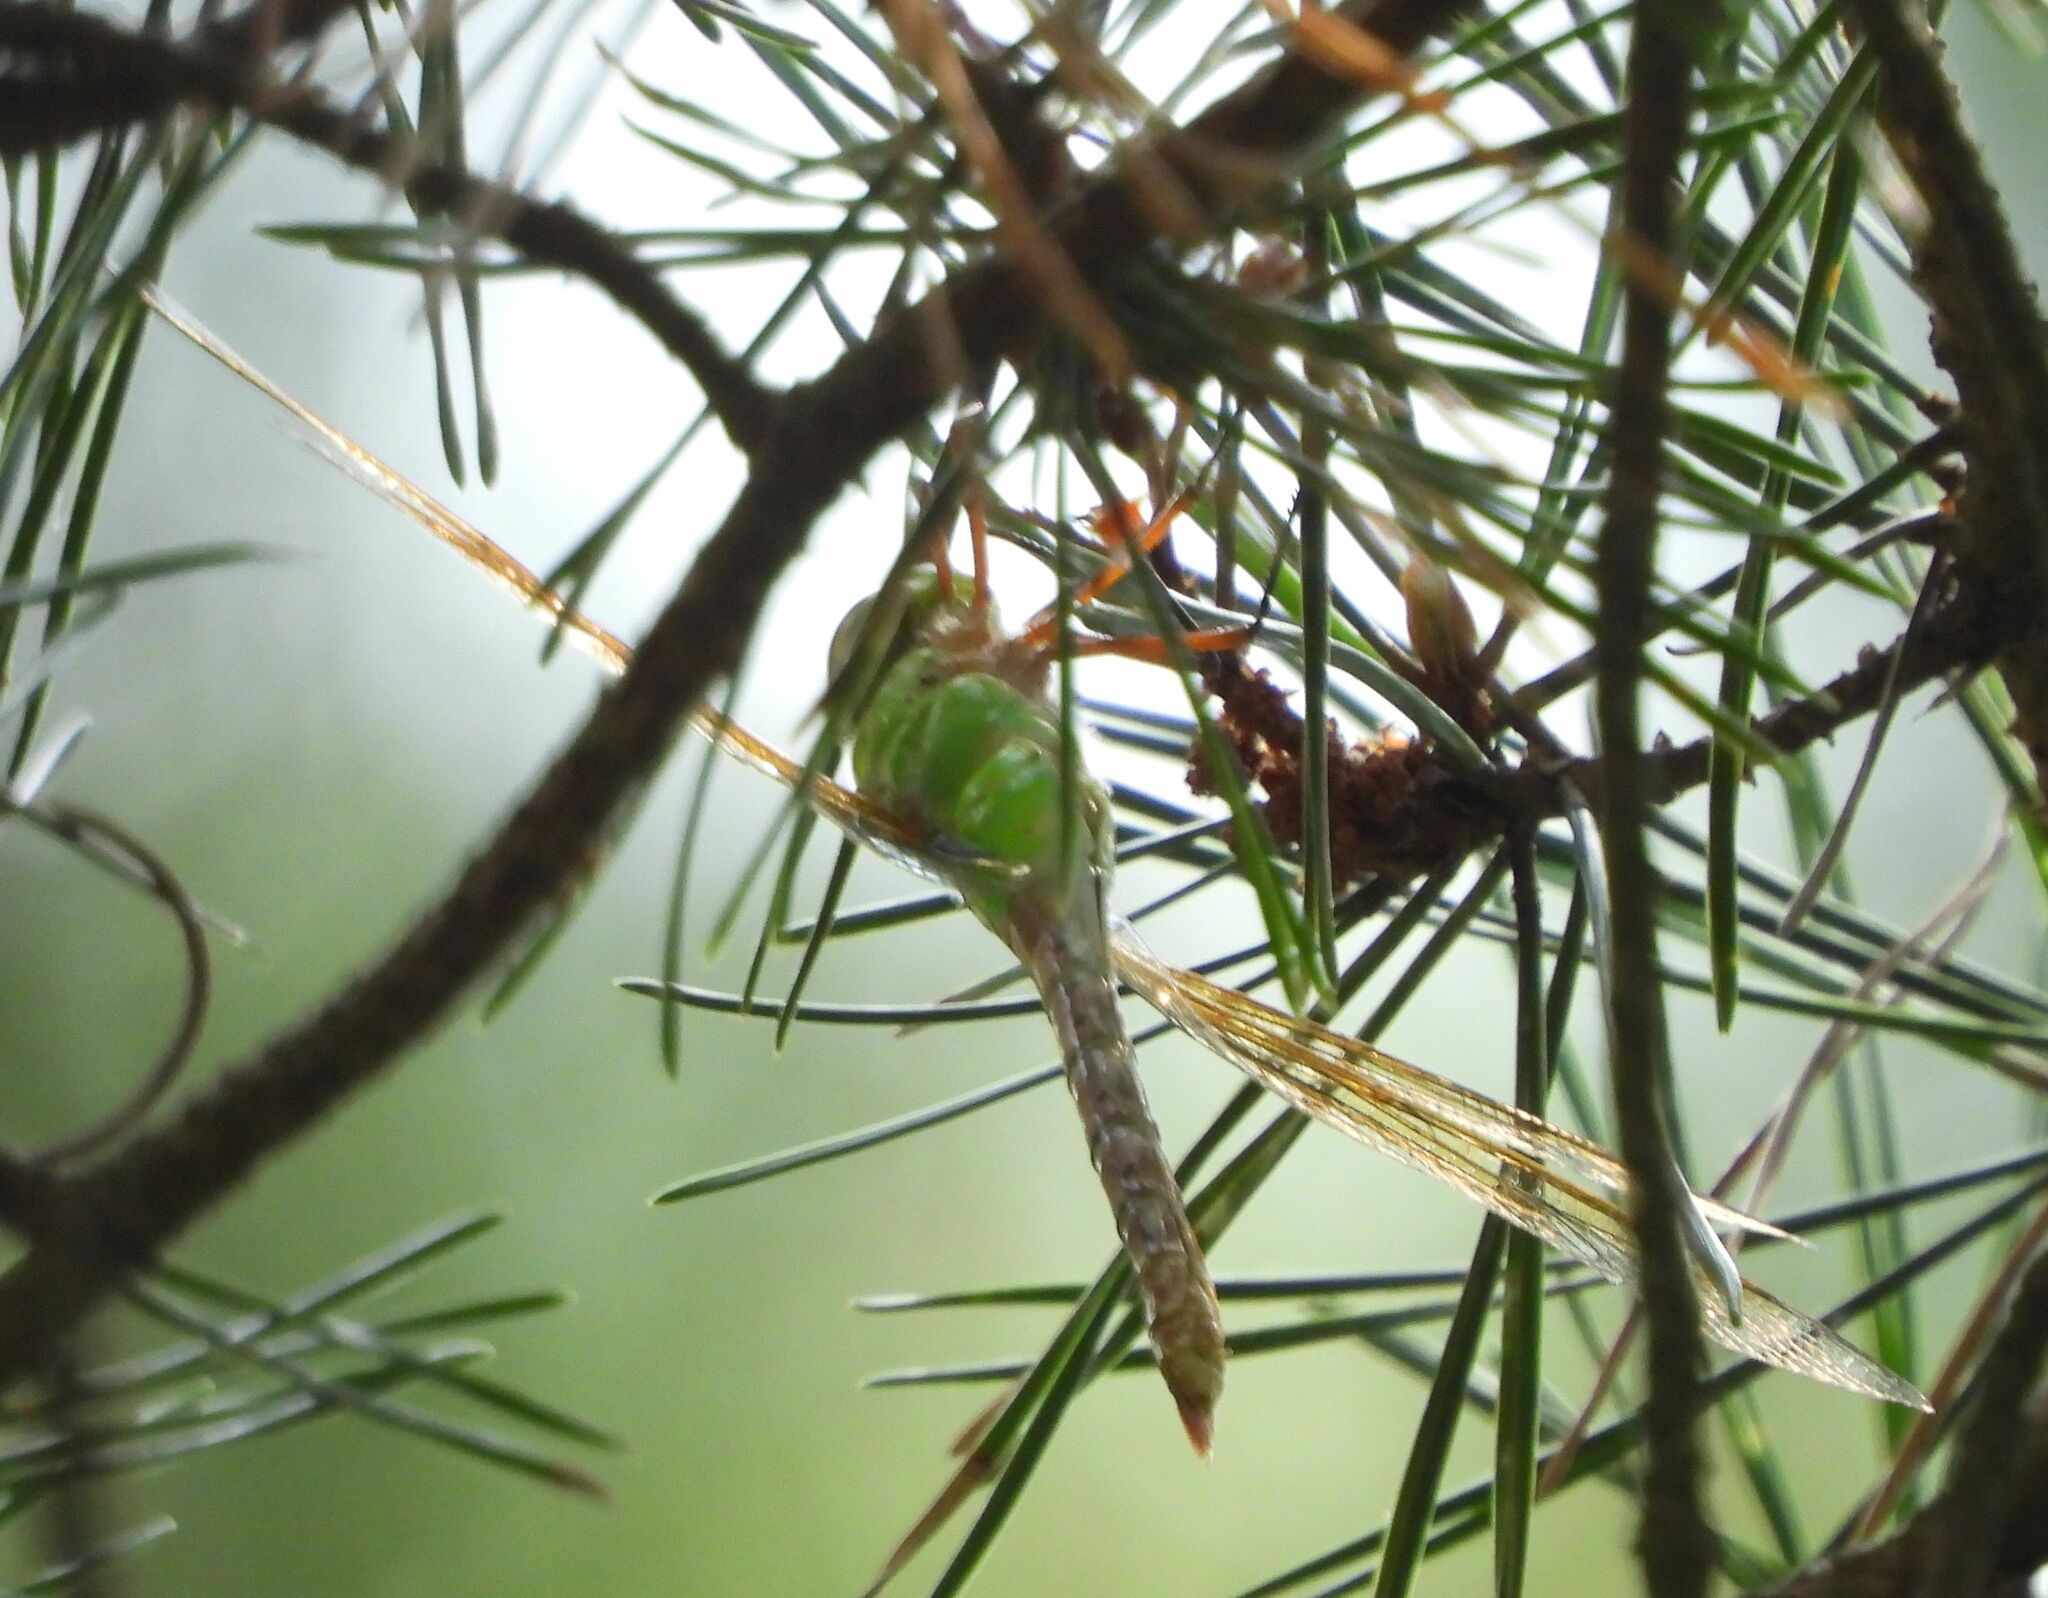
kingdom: Animalia
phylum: Arthropoda
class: Insecta
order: Odonata
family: Aeshnidae
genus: Anax
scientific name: Anax junius
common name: Common green darner
